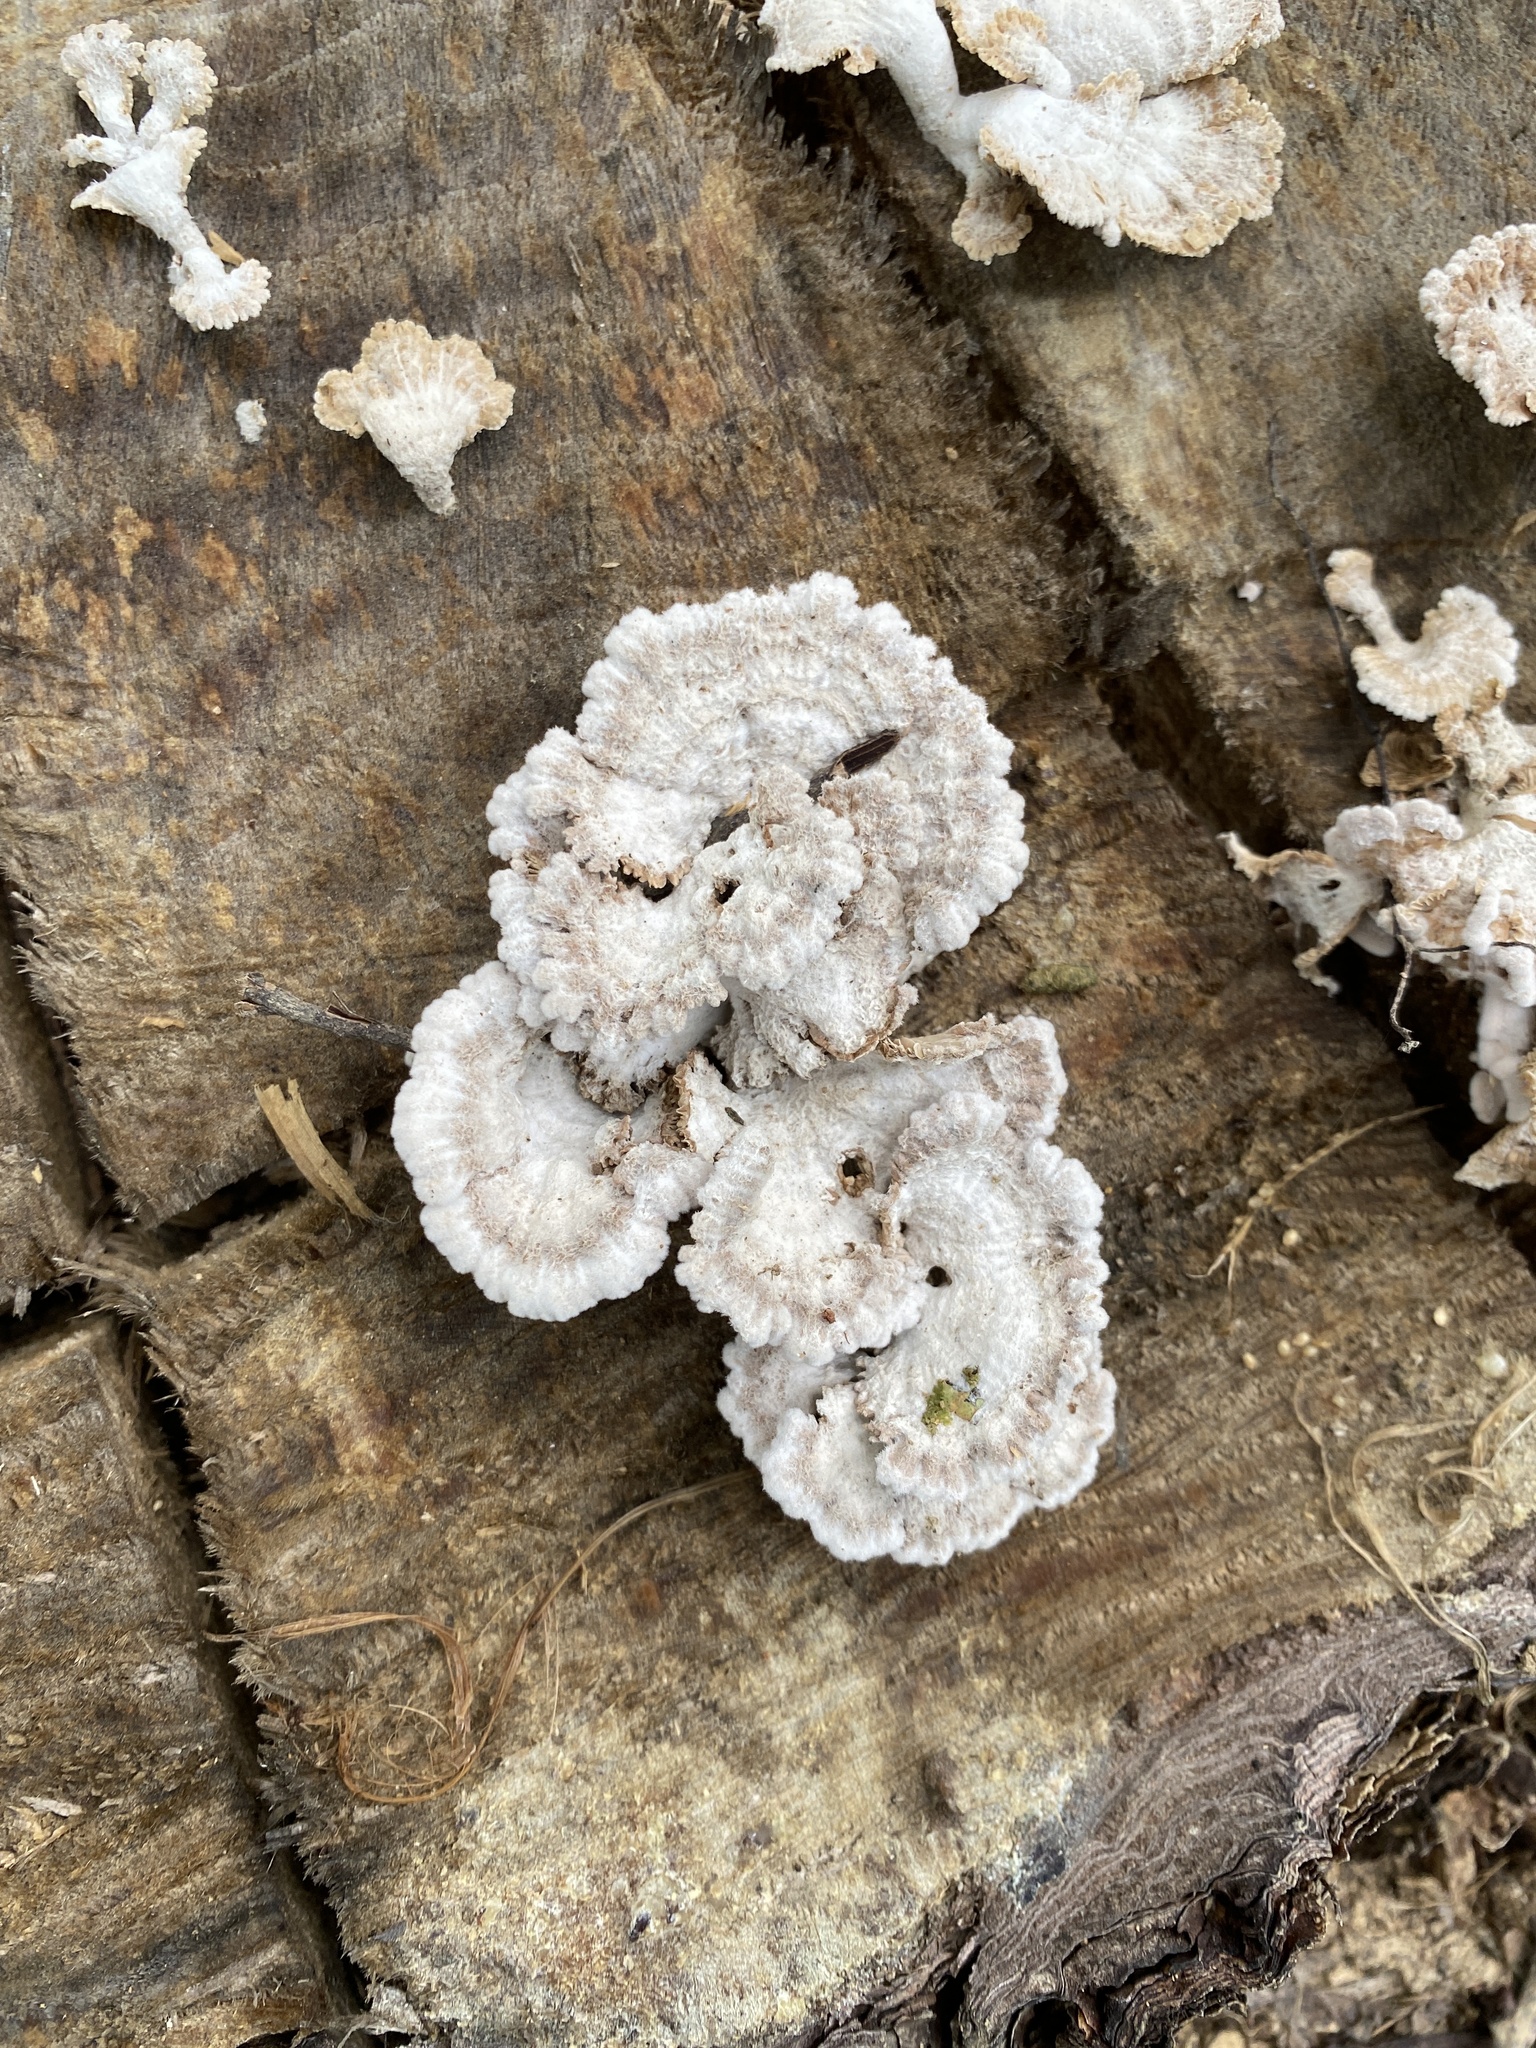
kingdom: Fungi
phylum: Basidiomycota
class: Agaricomycetes
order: Agaricales
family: Schizophyllaceae
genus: Schizophyllum
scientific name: Schizophyllum commune
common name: Common porecrust
